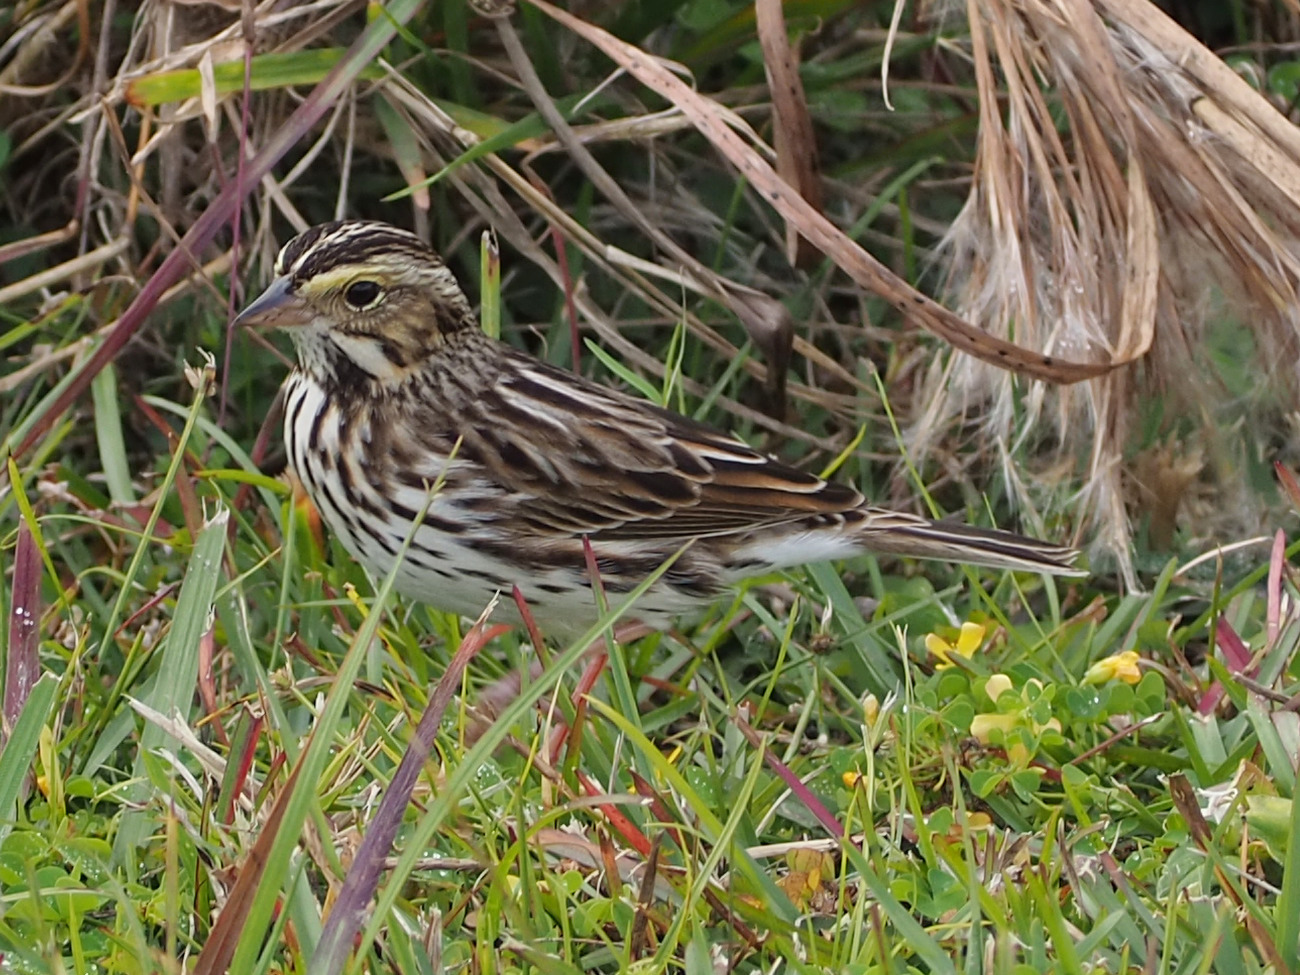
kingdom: Animalia
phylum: Chordata
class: Aves
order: Passeriformes
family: Passerellidae
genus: Passerculus
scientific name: Passerculus sandwichensis
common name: Savannah sparrow
